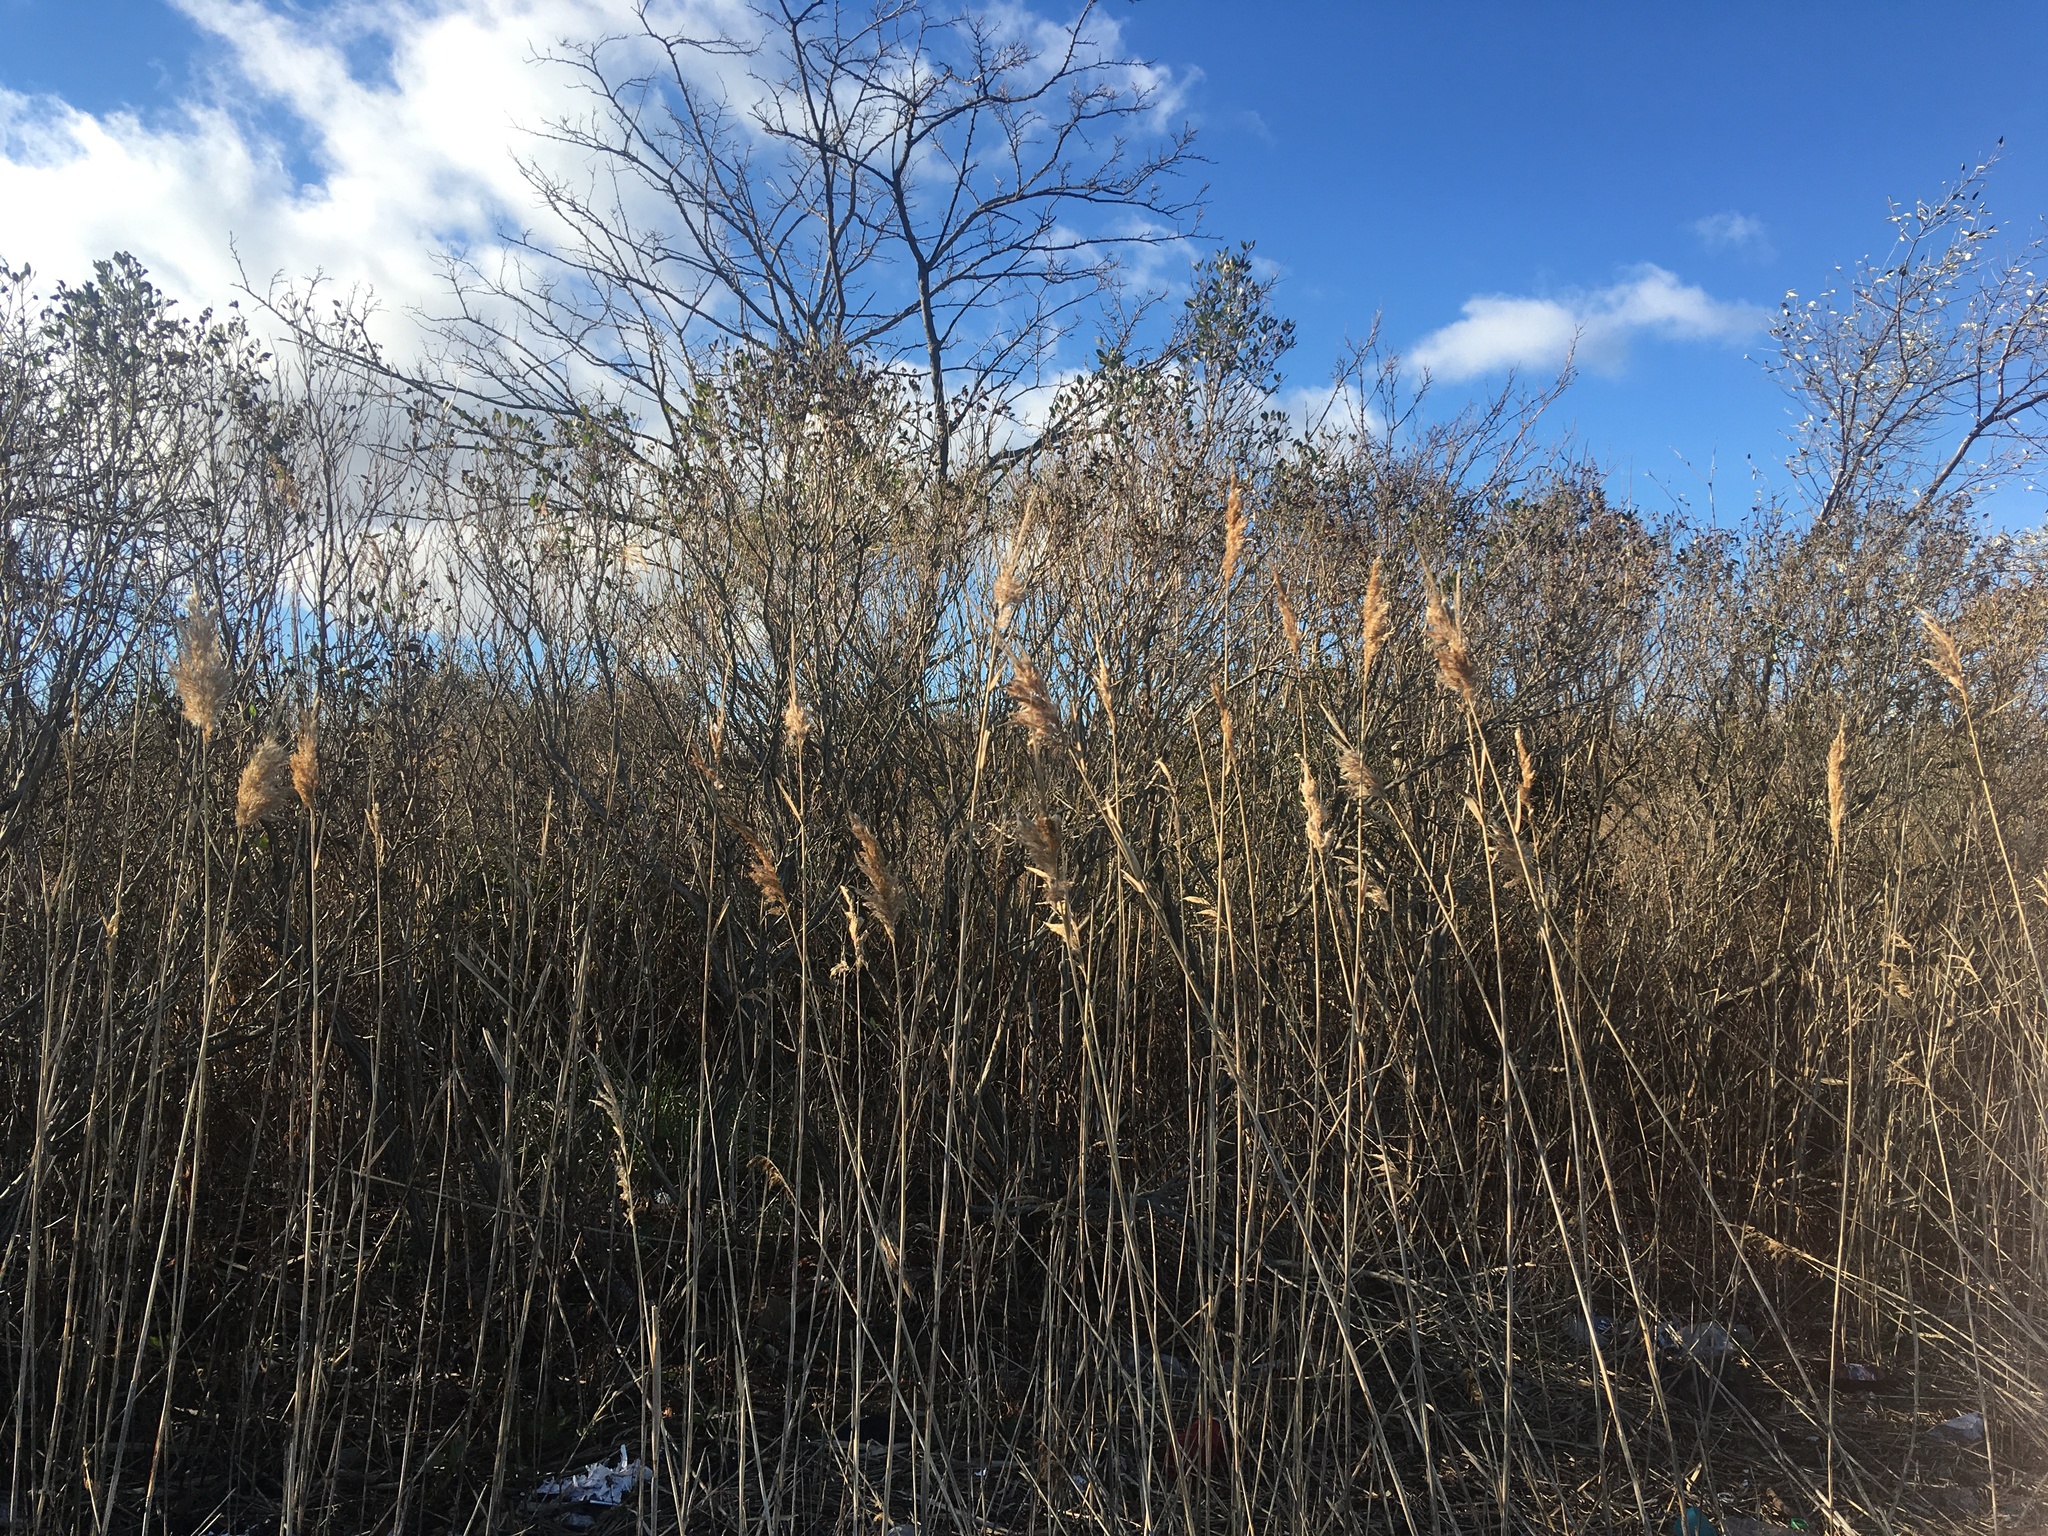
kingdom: Plantae
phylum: Tracheophyta
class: Magnoliopsida
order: Asterales
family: Asteraceae
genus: Baccharis
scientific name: Baccharis halimifolia
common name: Eastern baccharis
